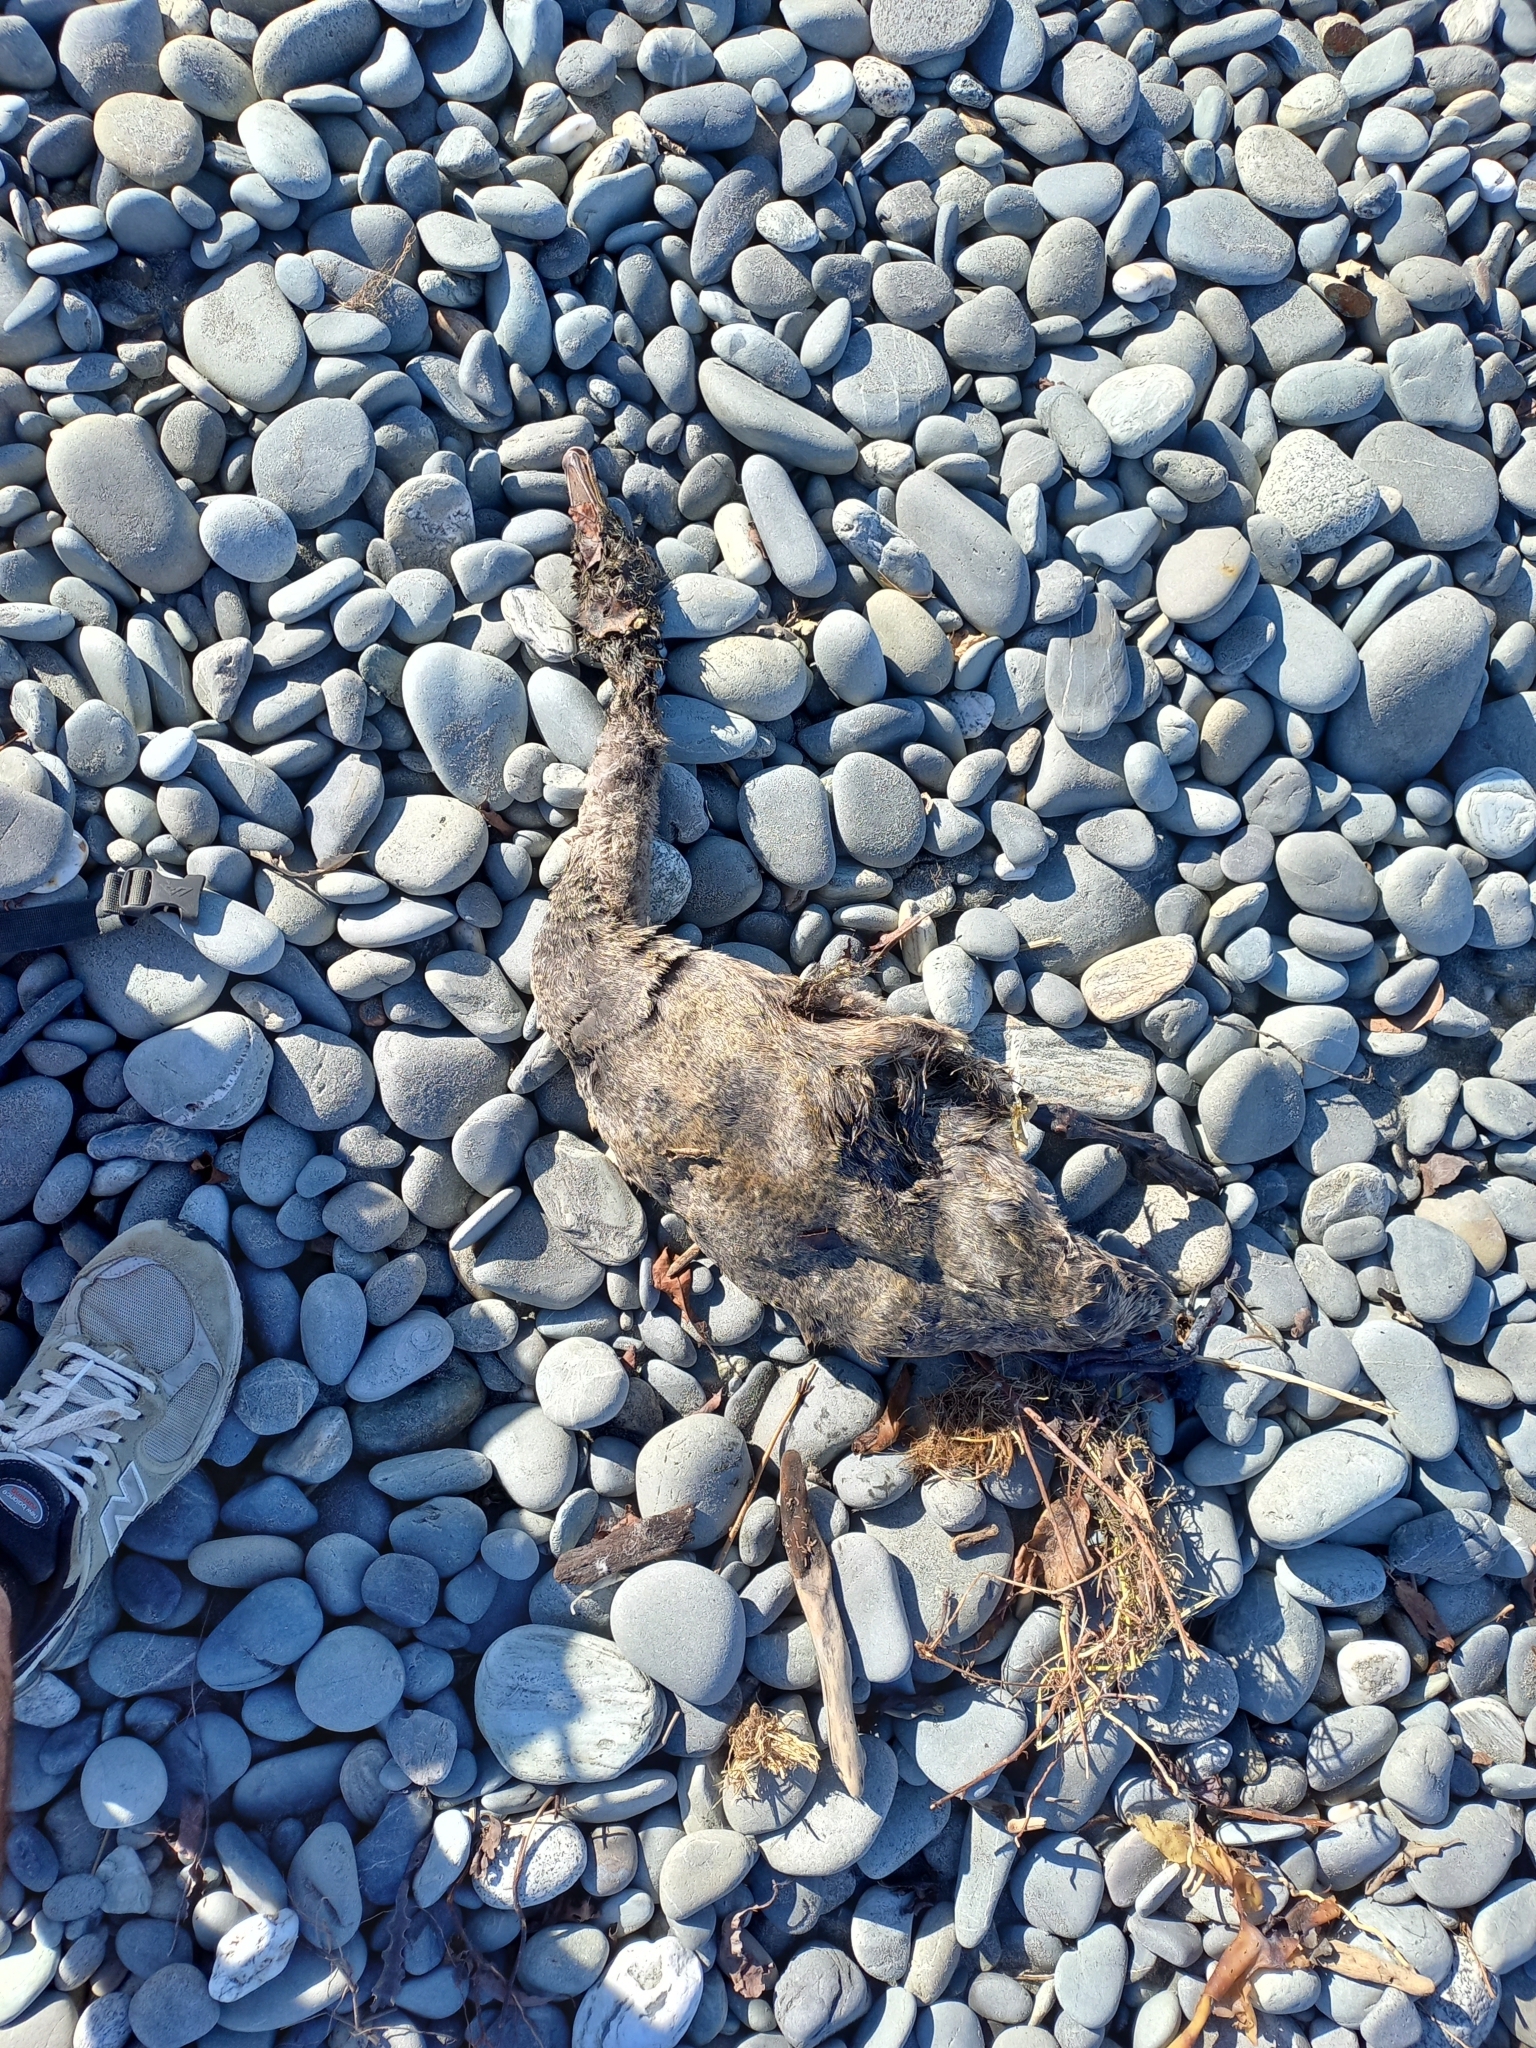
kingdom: Animalia
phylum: Chordata
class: Aves
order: Anseriformes
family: Anatidae
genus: Cygnus
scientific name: Cygnus atratus
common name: Black swan
